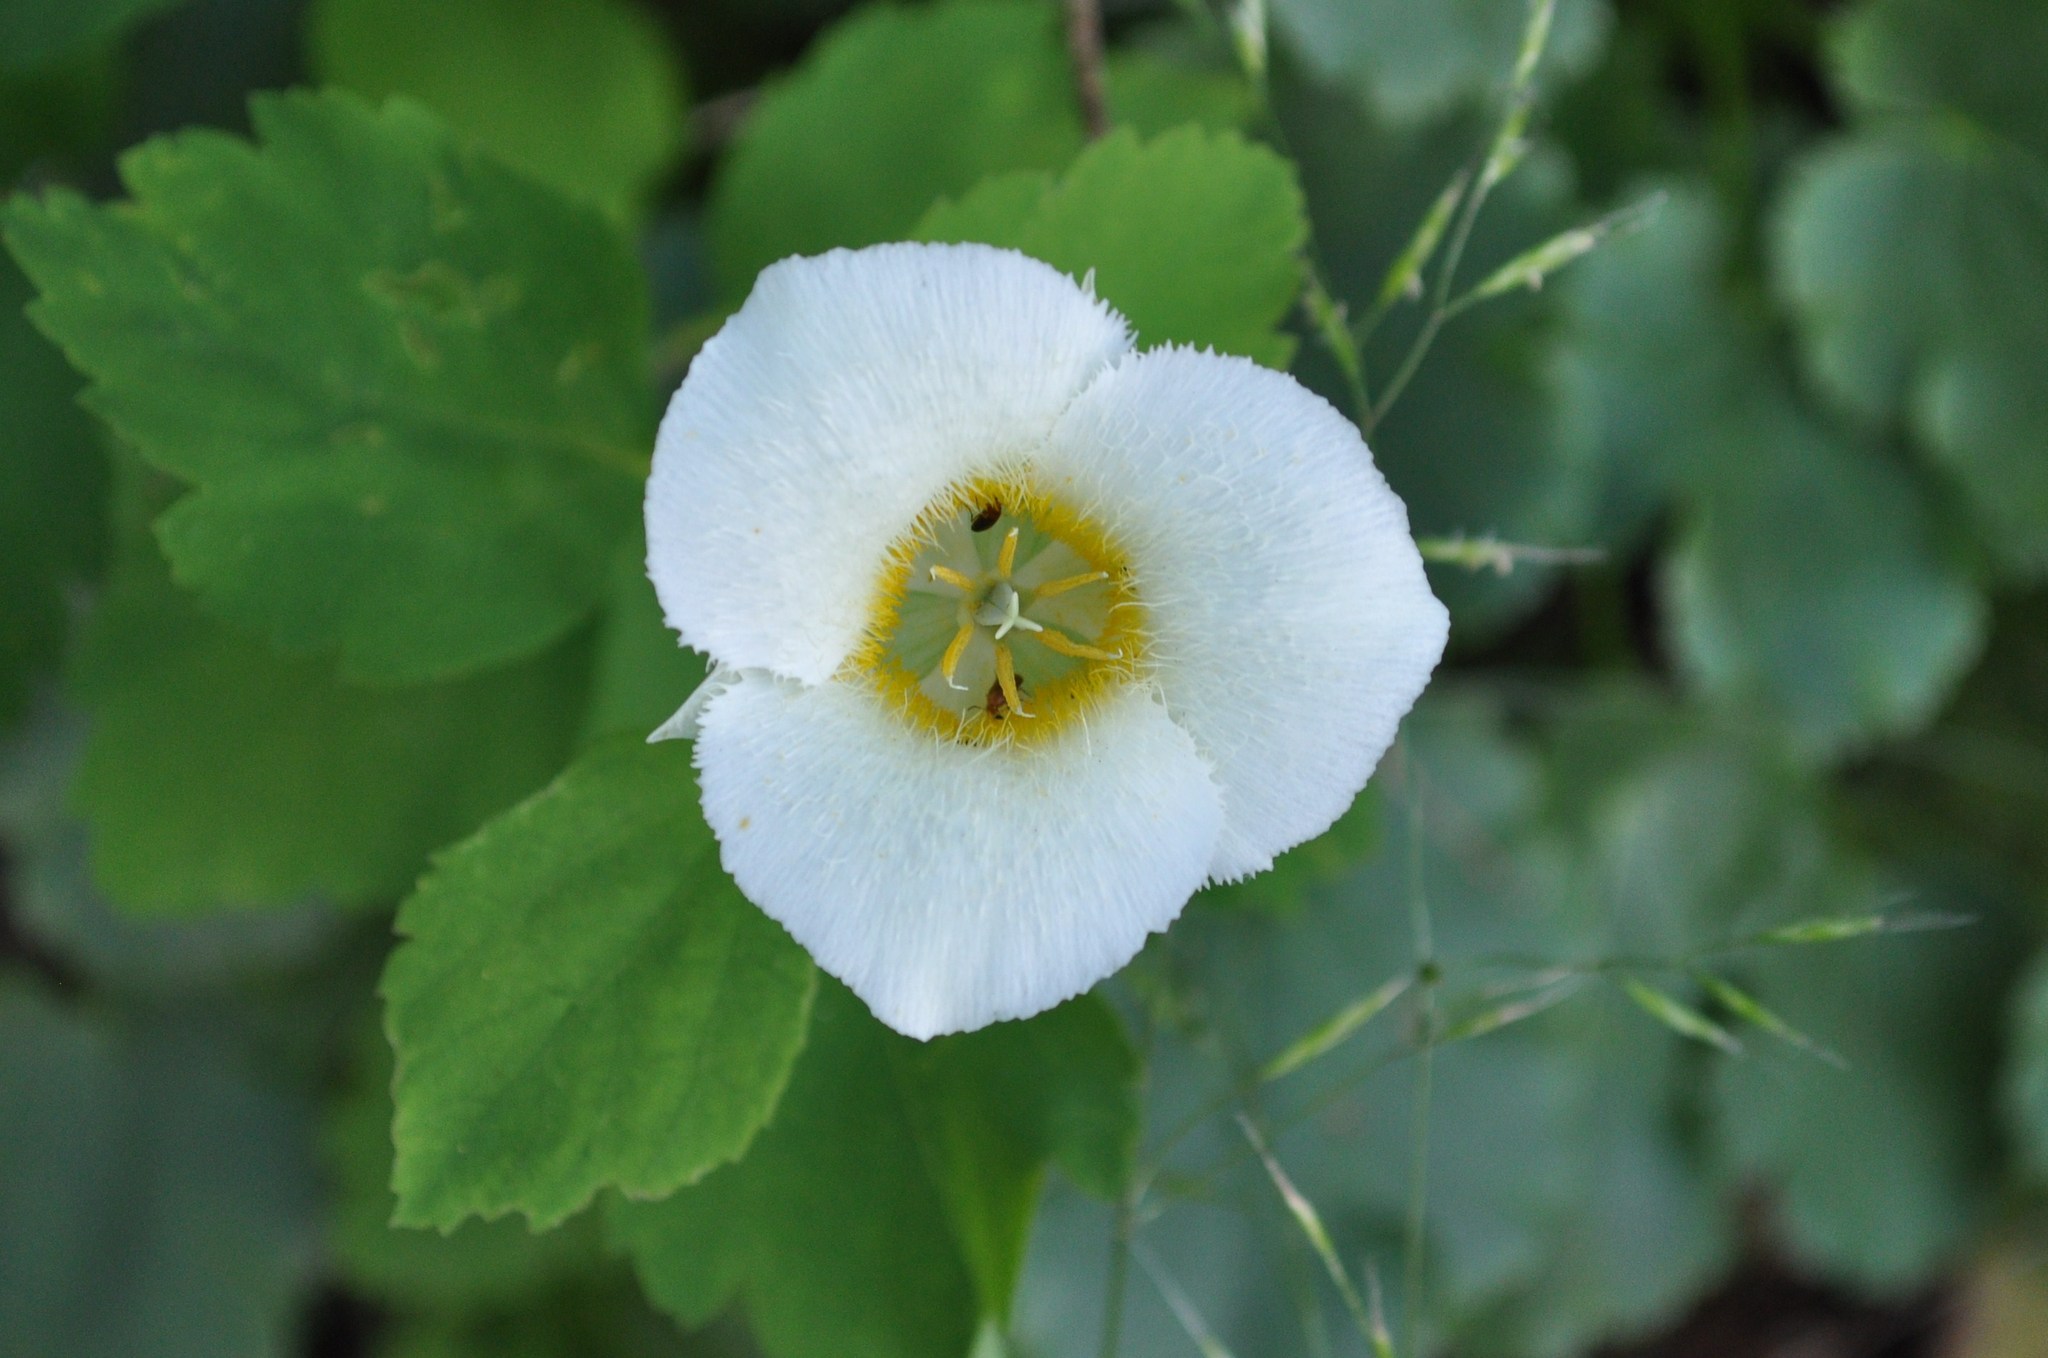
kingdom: Plantae
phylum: Tracheophyta
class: Liliopsida
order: Liliales
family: Liliaceae
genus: Calochortus
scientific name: Calochortus apiculatus
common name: Baker's mariposa lily
